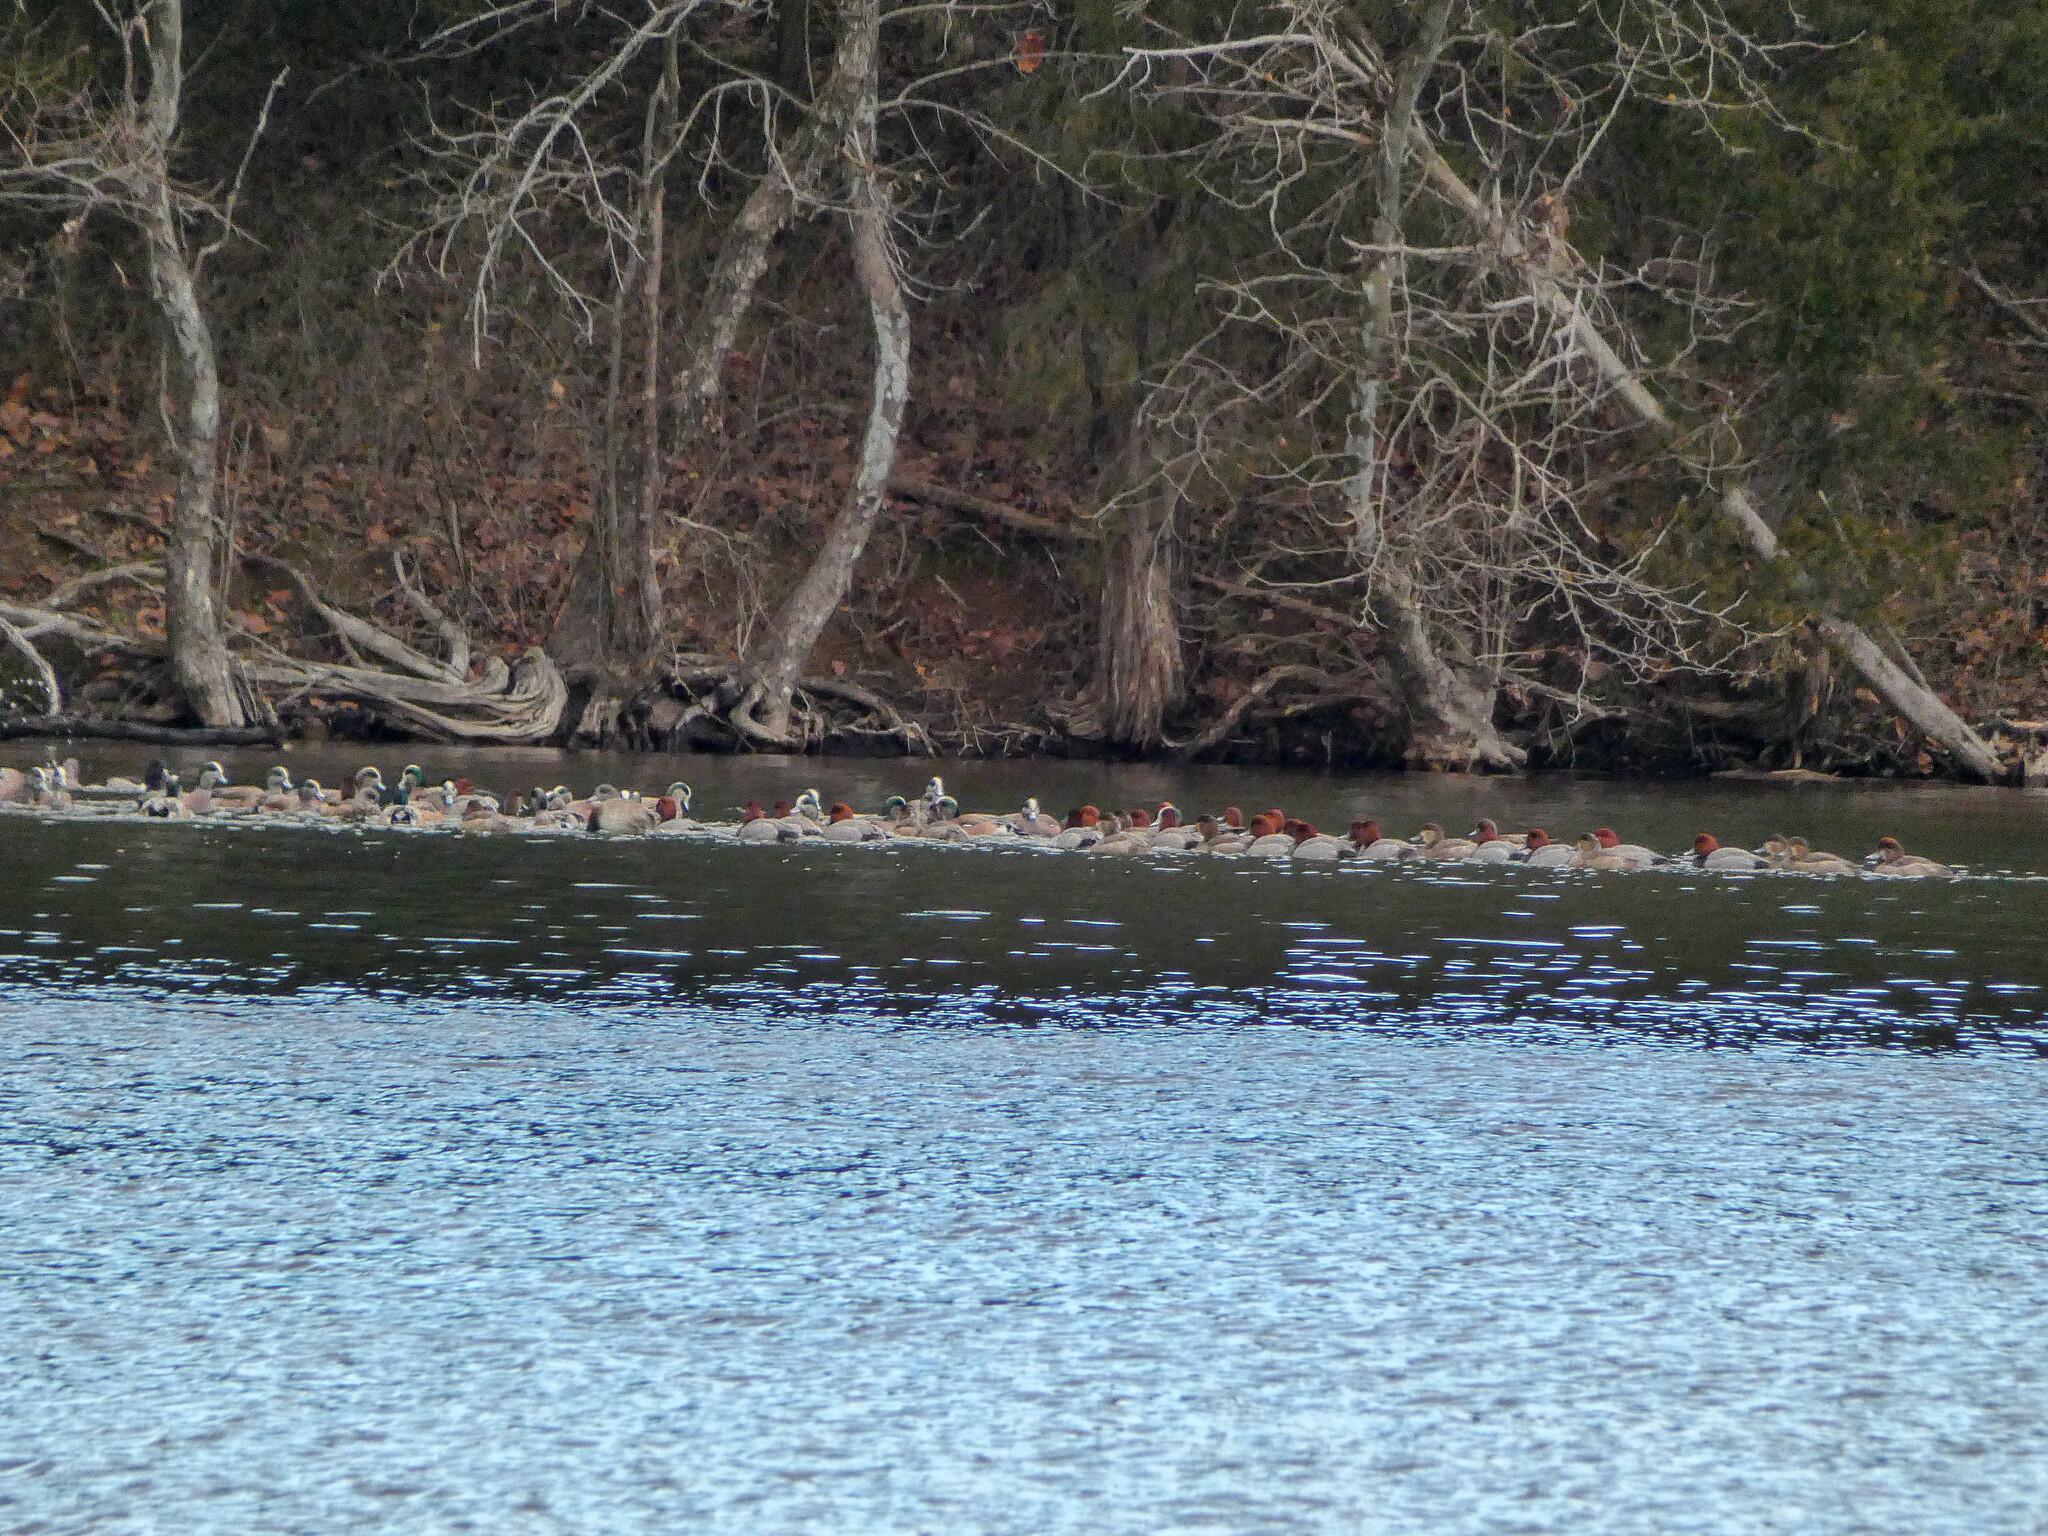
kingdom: Animalia
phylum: Chordata
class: Aves
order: Anseriformes
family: Anatidae
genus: Mareca
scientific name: Mareca americana
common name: American wigeon
